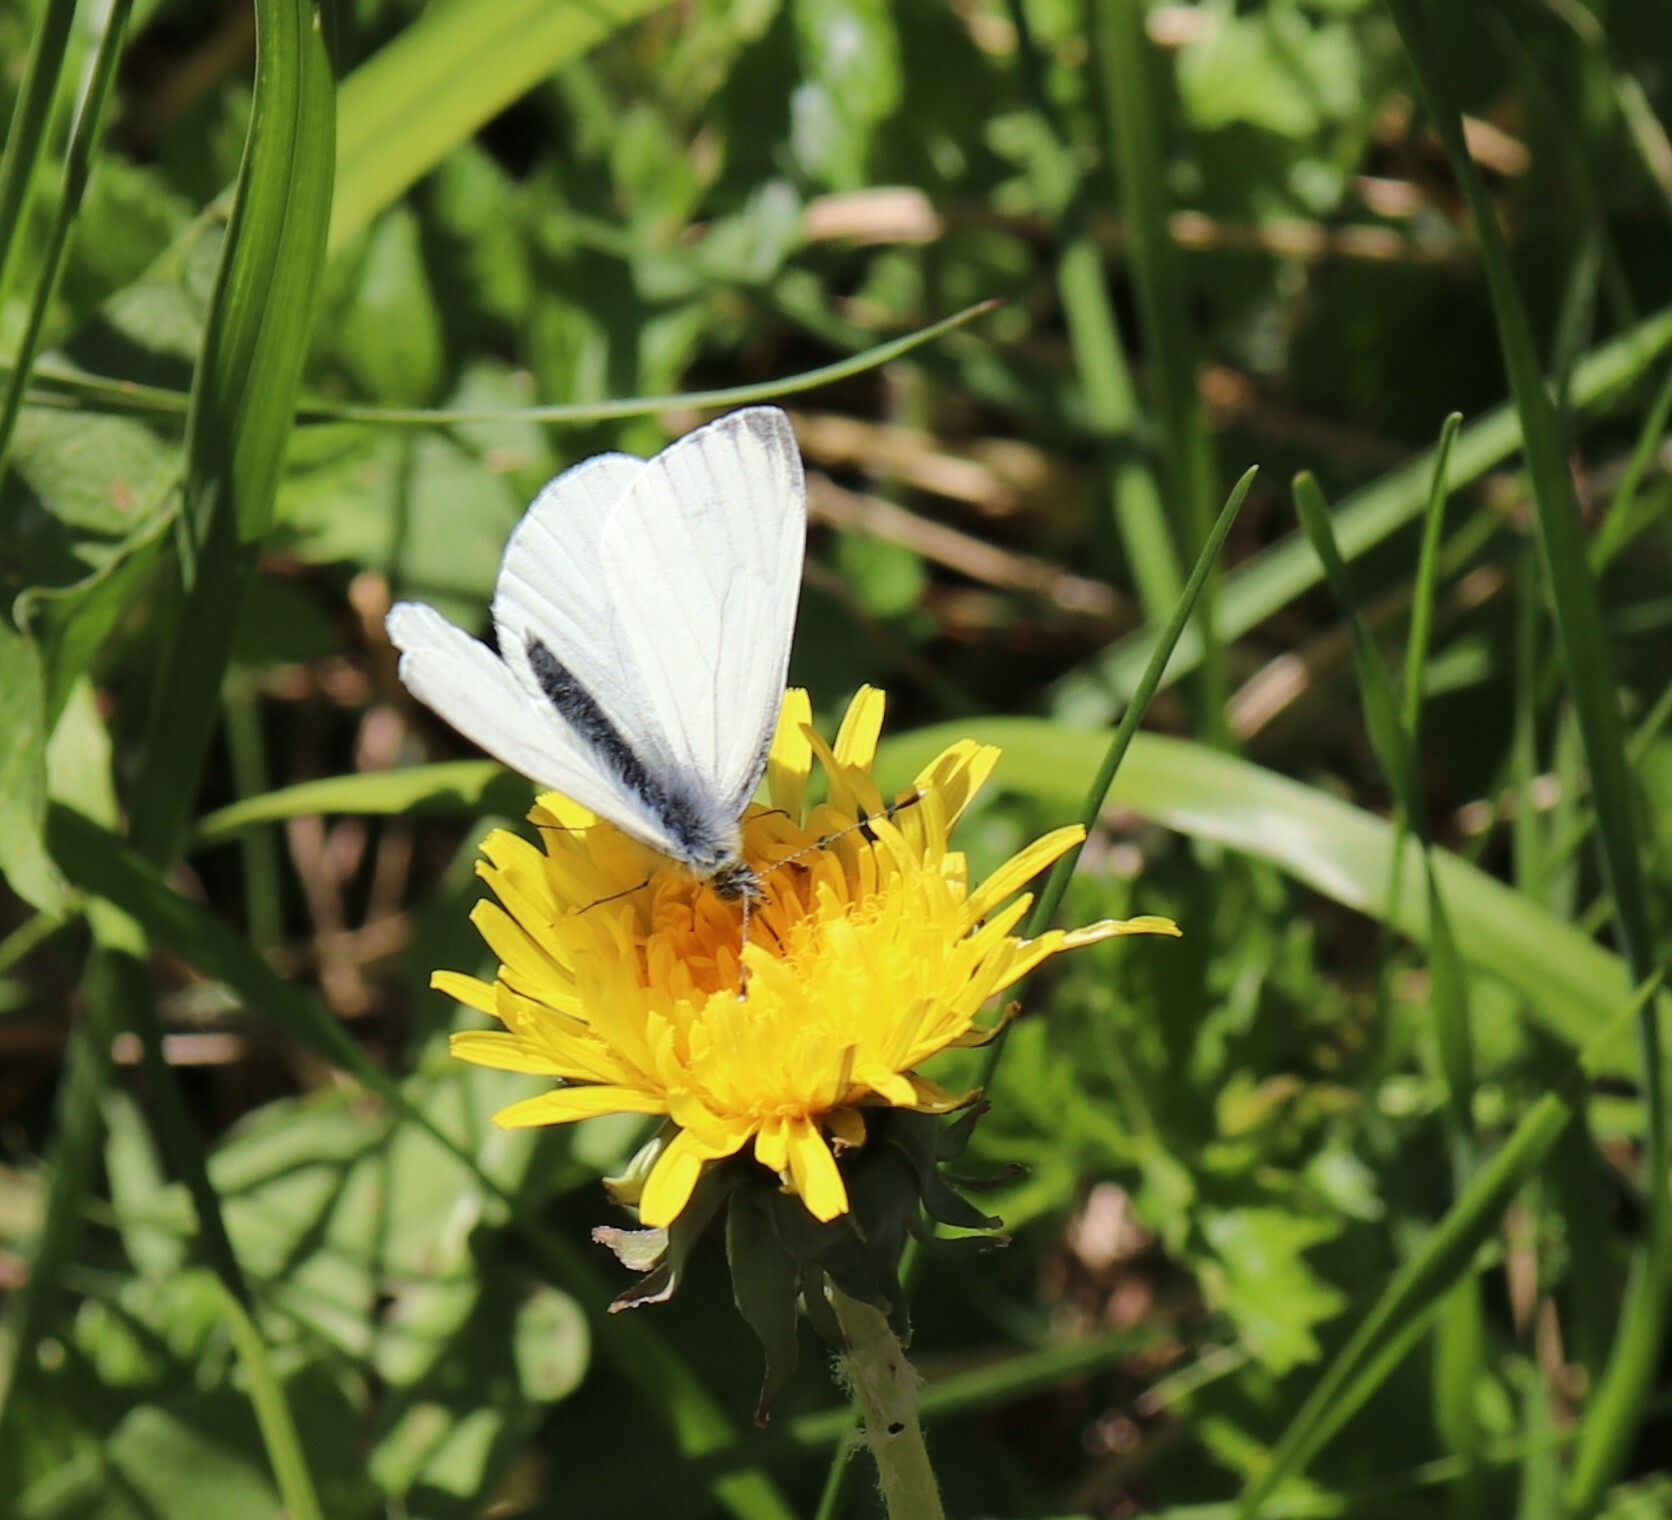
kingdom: Animalia
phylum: Arthropoda
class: Insecta
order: Lepidoptera
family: Pieridae
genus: Pieris
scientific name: Pieris napi
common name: Green-veined white
